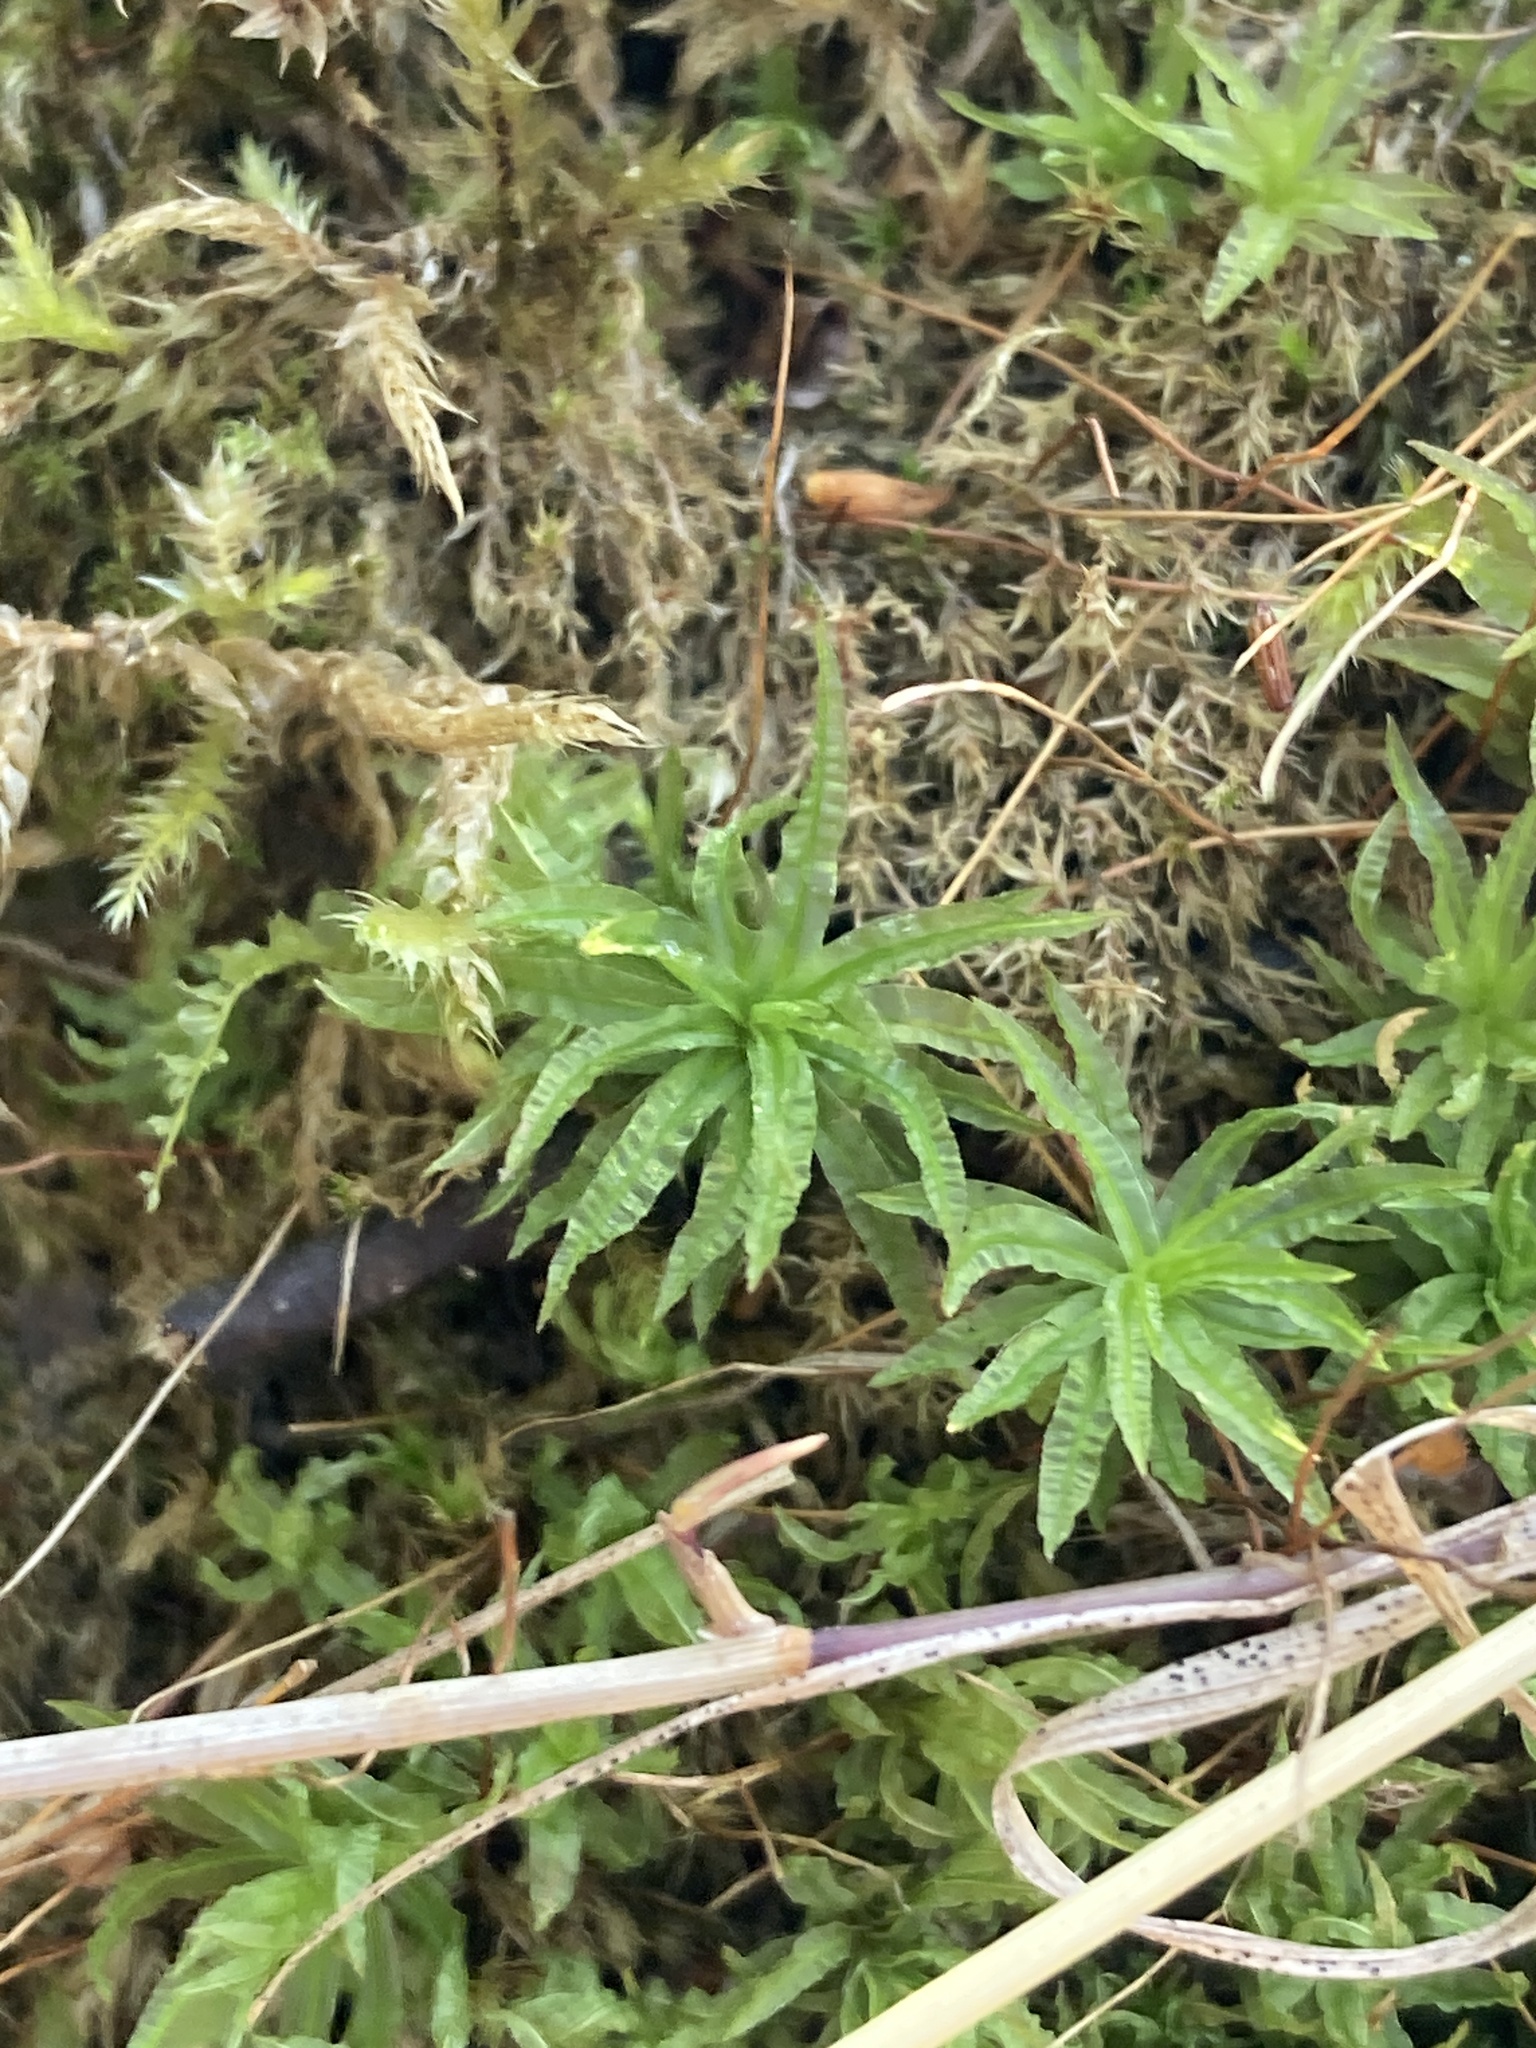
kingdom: Plantae
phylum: Bryophyta
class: Polytrichopsida
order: Polytrichales
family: Polytrichaceae
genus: Atrichum
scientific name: Atrichum undulatum
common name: Common smoothcap
